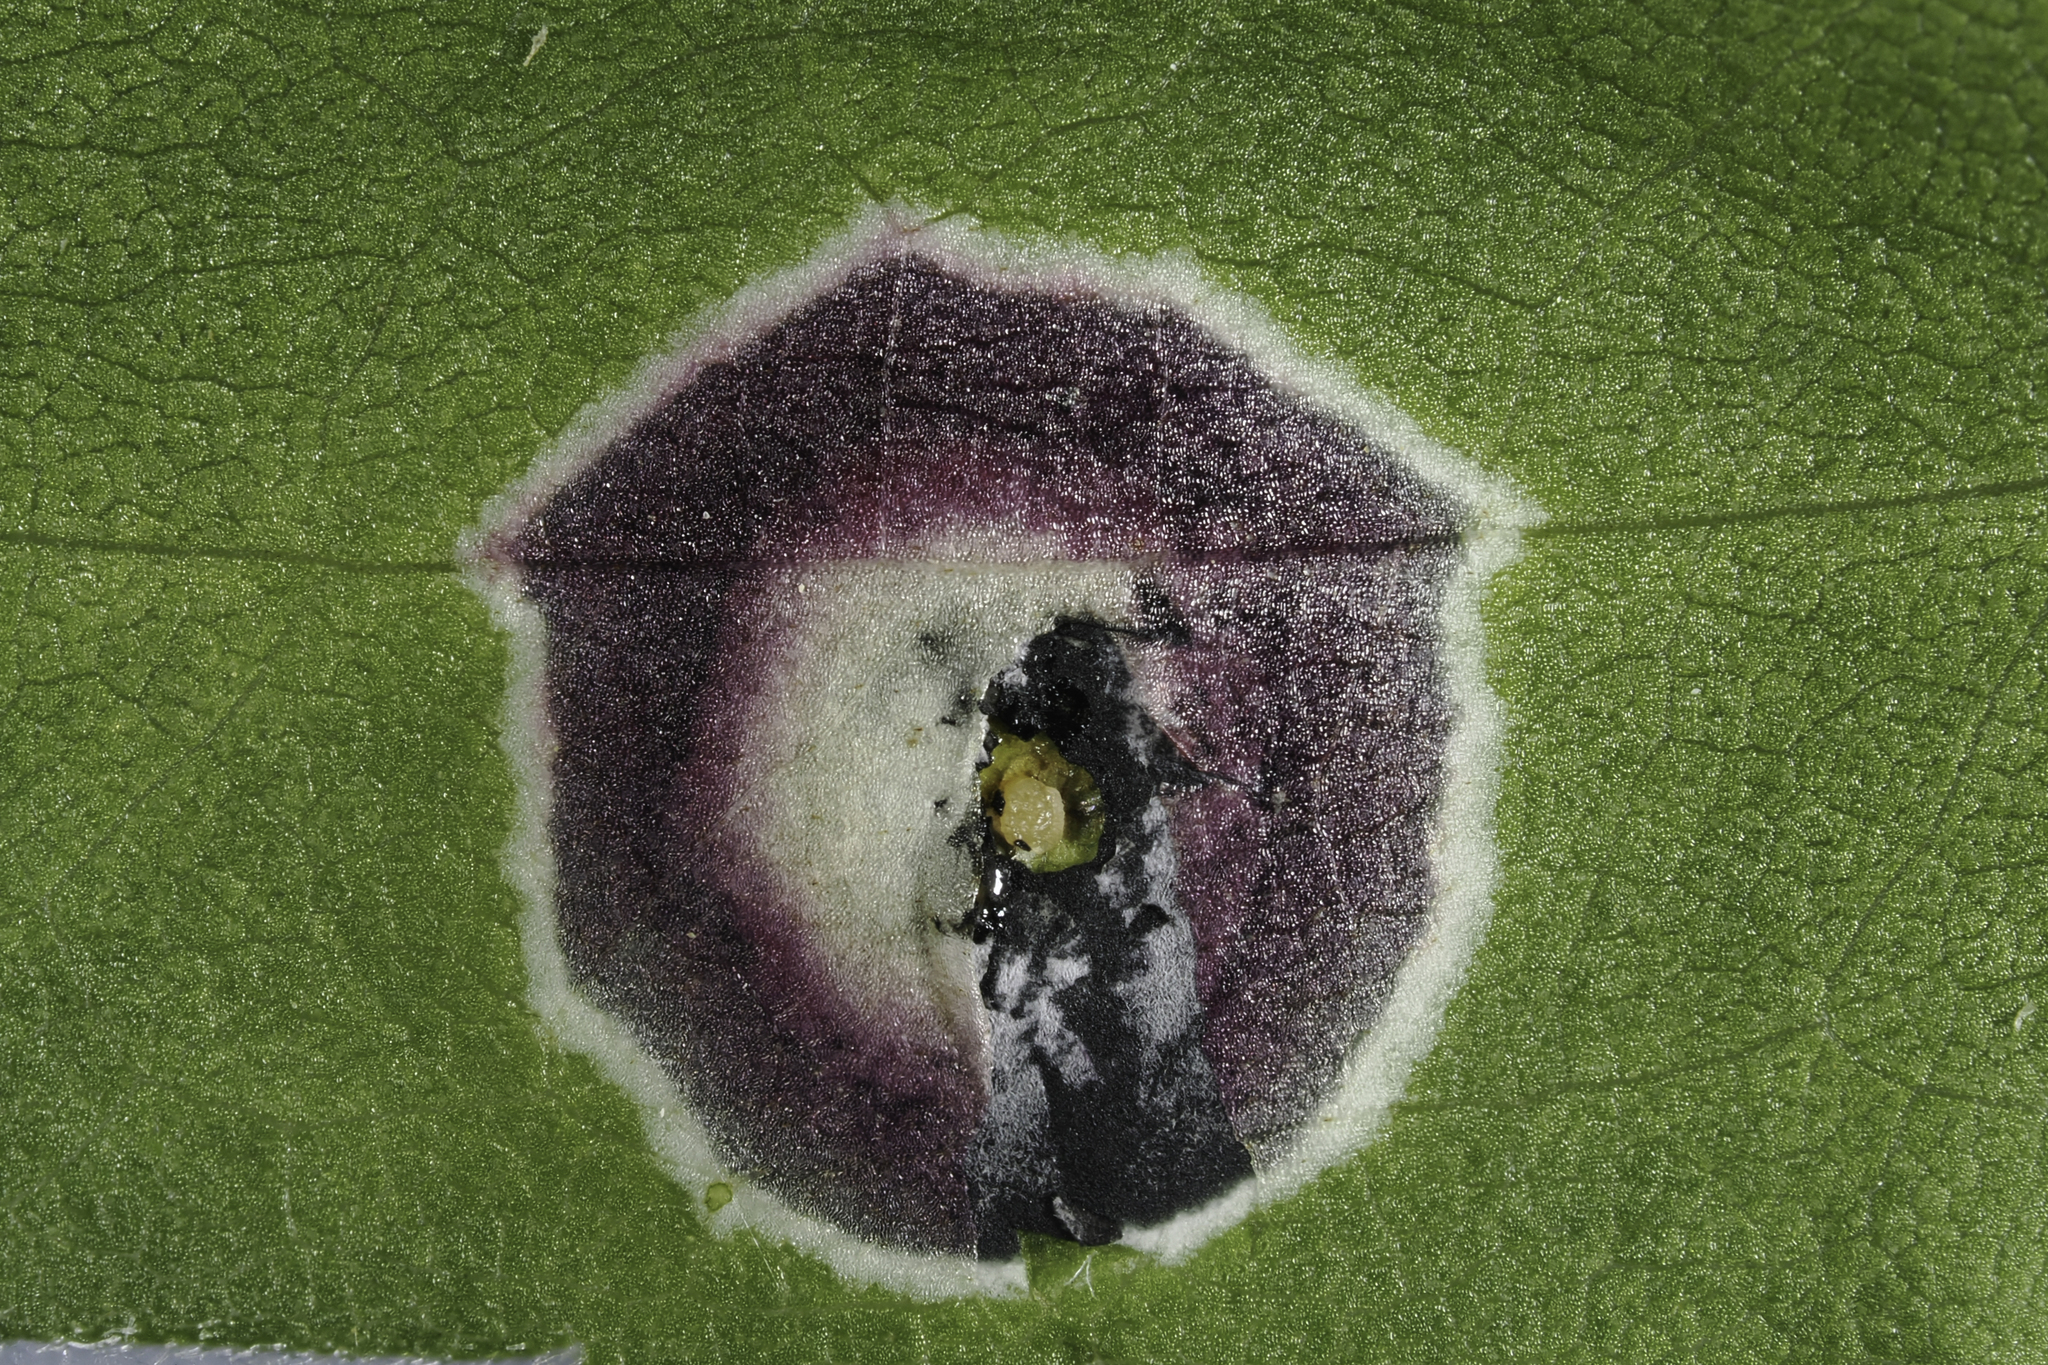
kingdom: Animalia
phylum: Arthropoda
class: Insecta
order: Diptera
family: Cecidomyiidae
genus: Asteromyia
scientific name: Asteromyia carbonifera
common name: Carbonifera goldenrod gall midge
